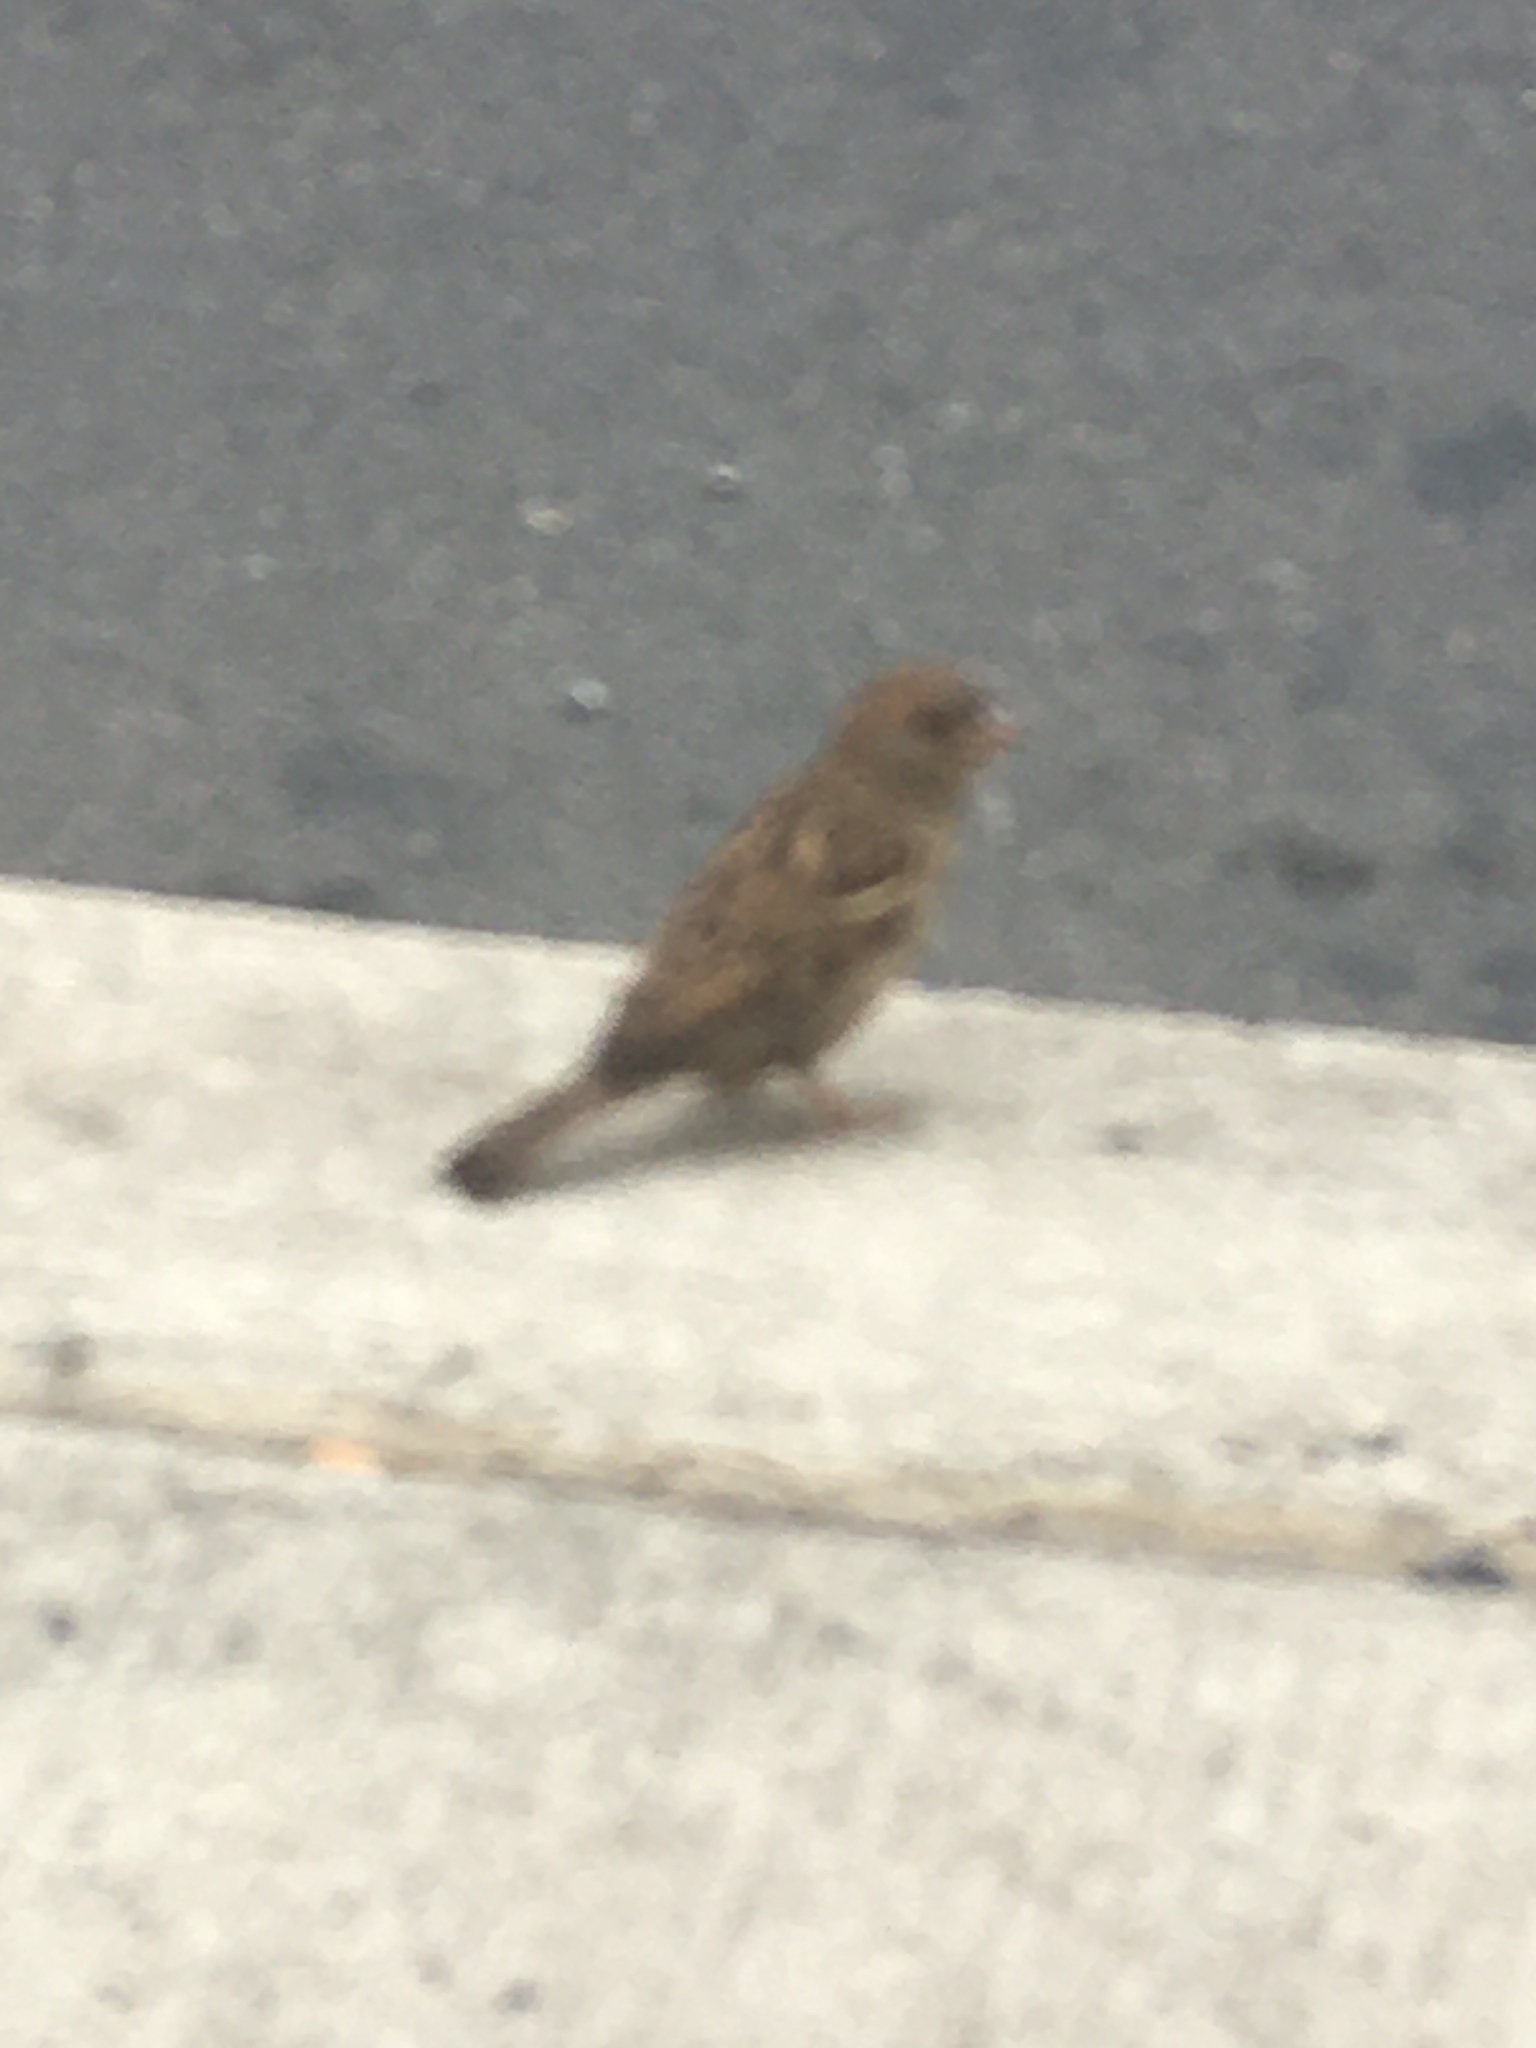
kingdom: Animalia
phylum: Chordata
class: Aves
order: Passeriformes
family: Passeridae
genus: Passer
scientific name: Passer domesticus
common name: House sparrow
